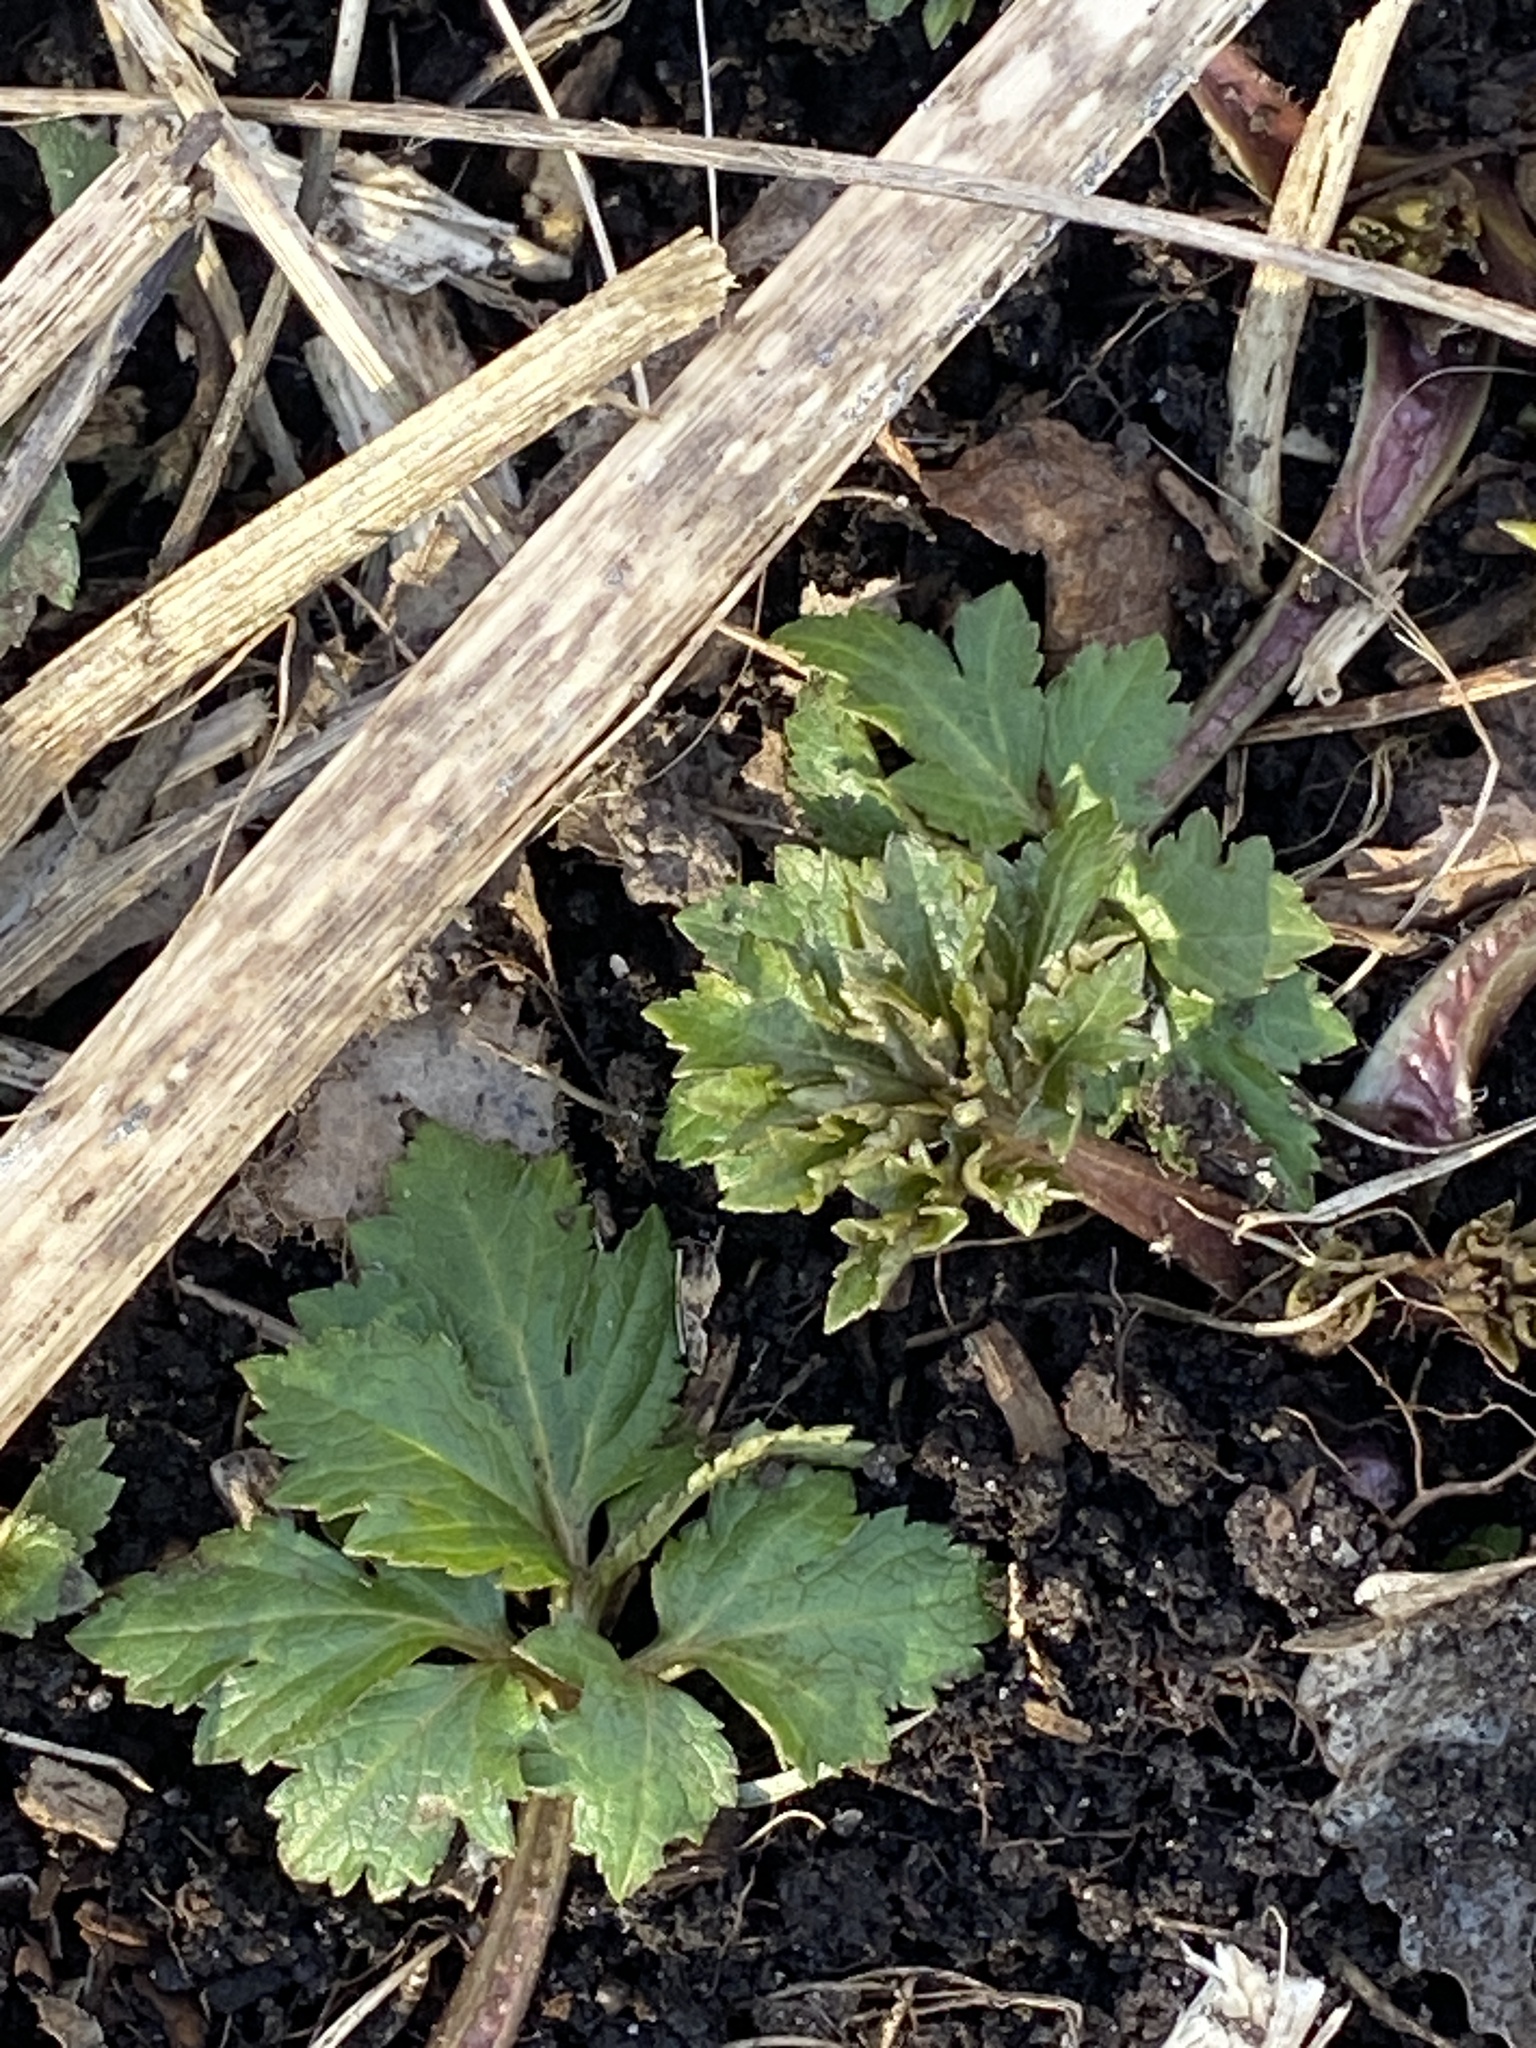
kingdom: Plantae
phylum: Tracheophyta
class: Magnoliopsida
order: Asterales
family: Asteraceae
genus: Rudbeckia
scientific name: Rudbeckia laciniata
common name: Coneflower
